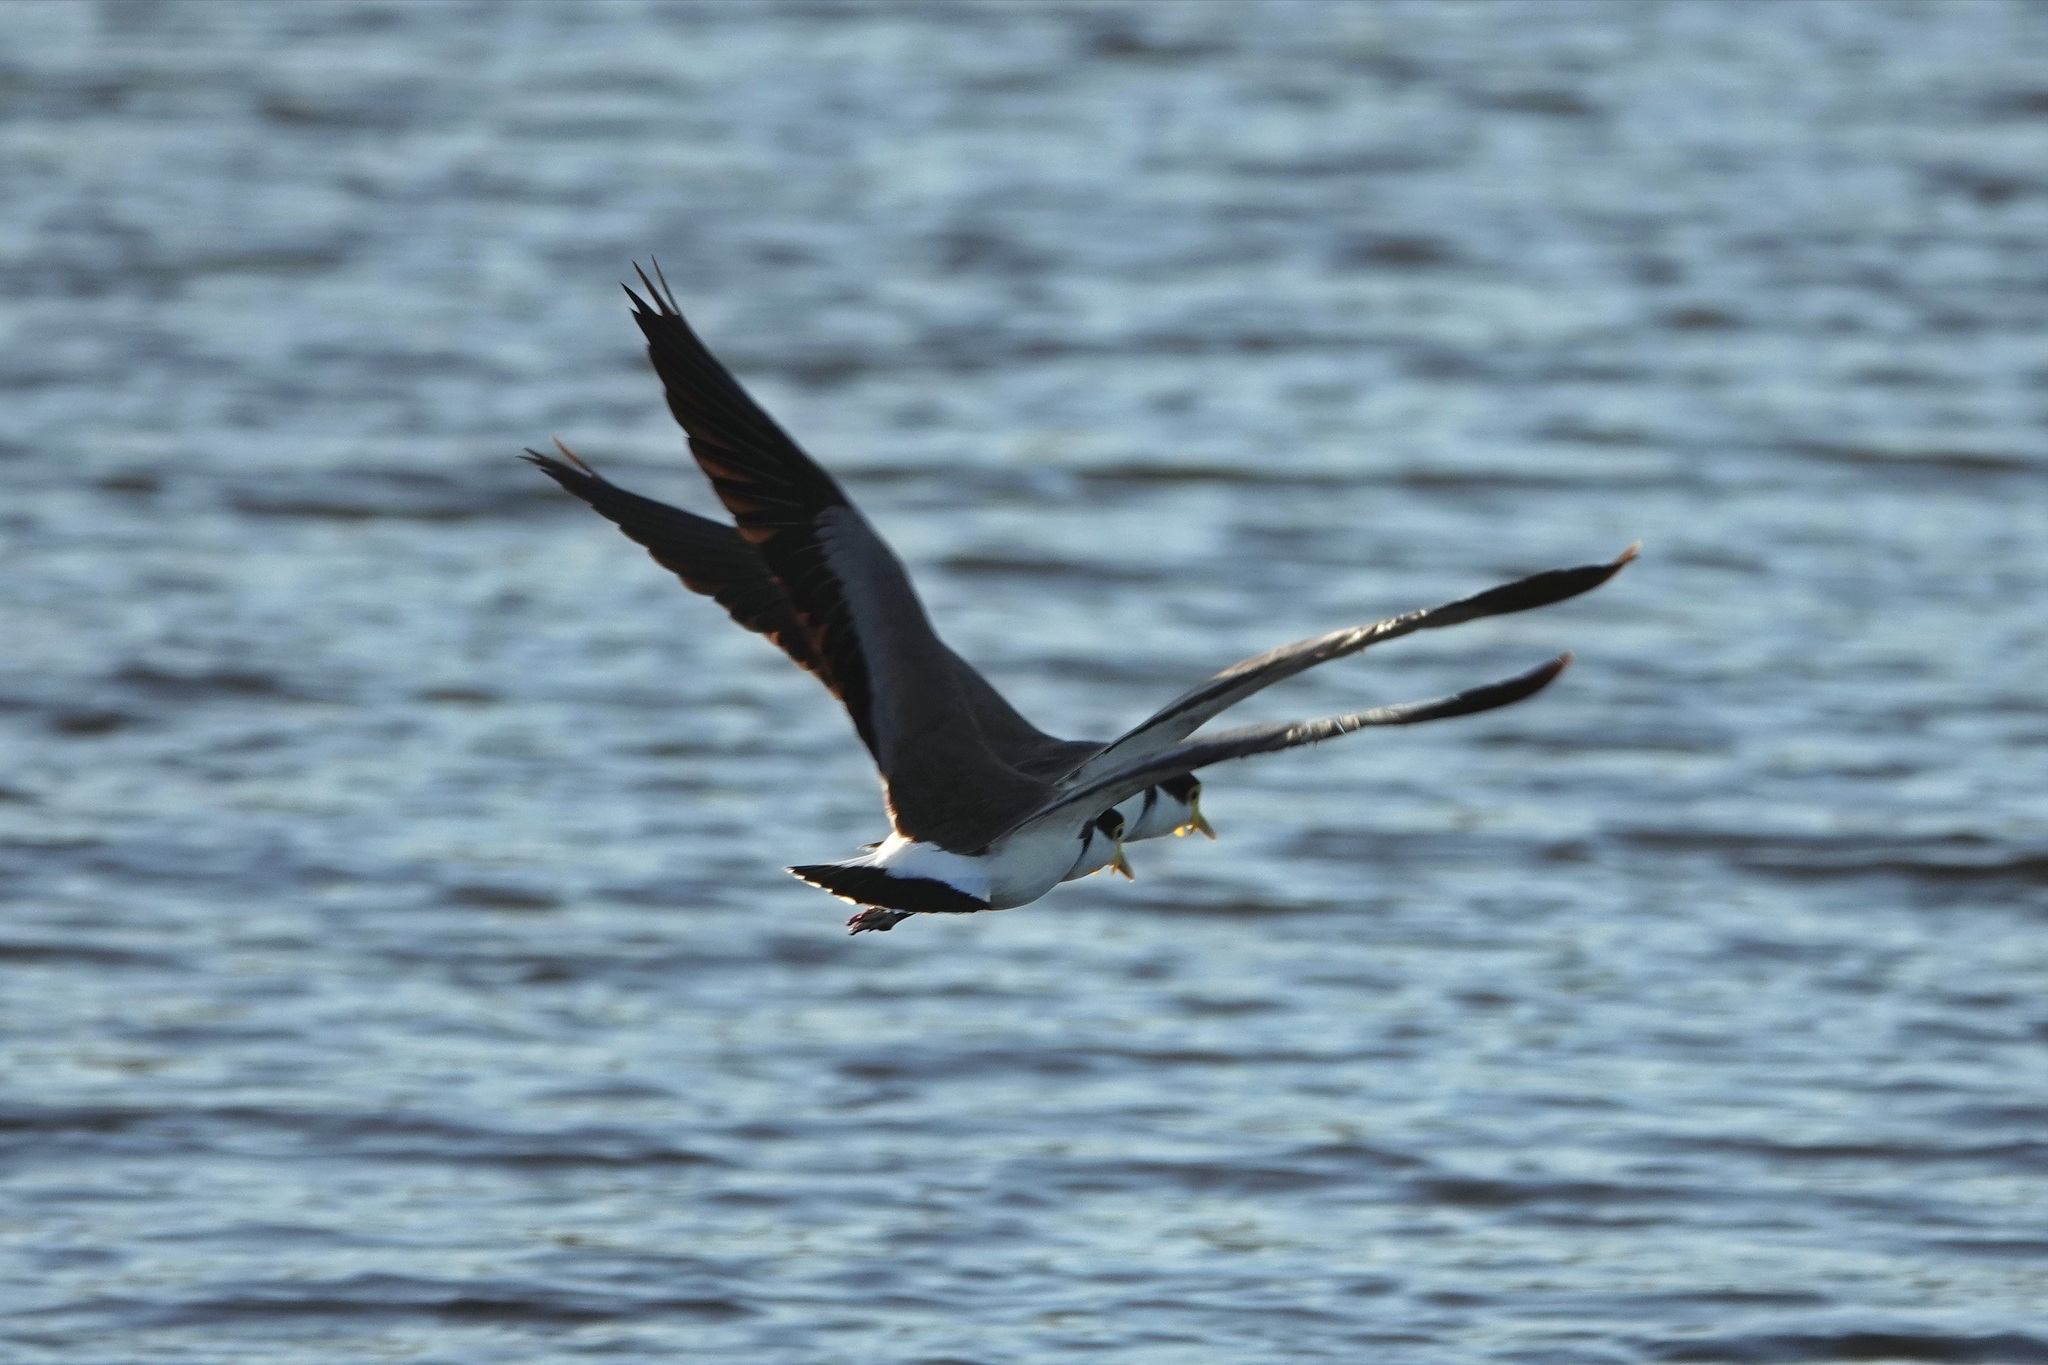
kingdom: Animalia
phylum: Chordata
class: Aves
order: Charadriiformes
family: Charadriidae
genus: Vanellus
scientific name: Vanellus miles
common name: Masked lapwing
